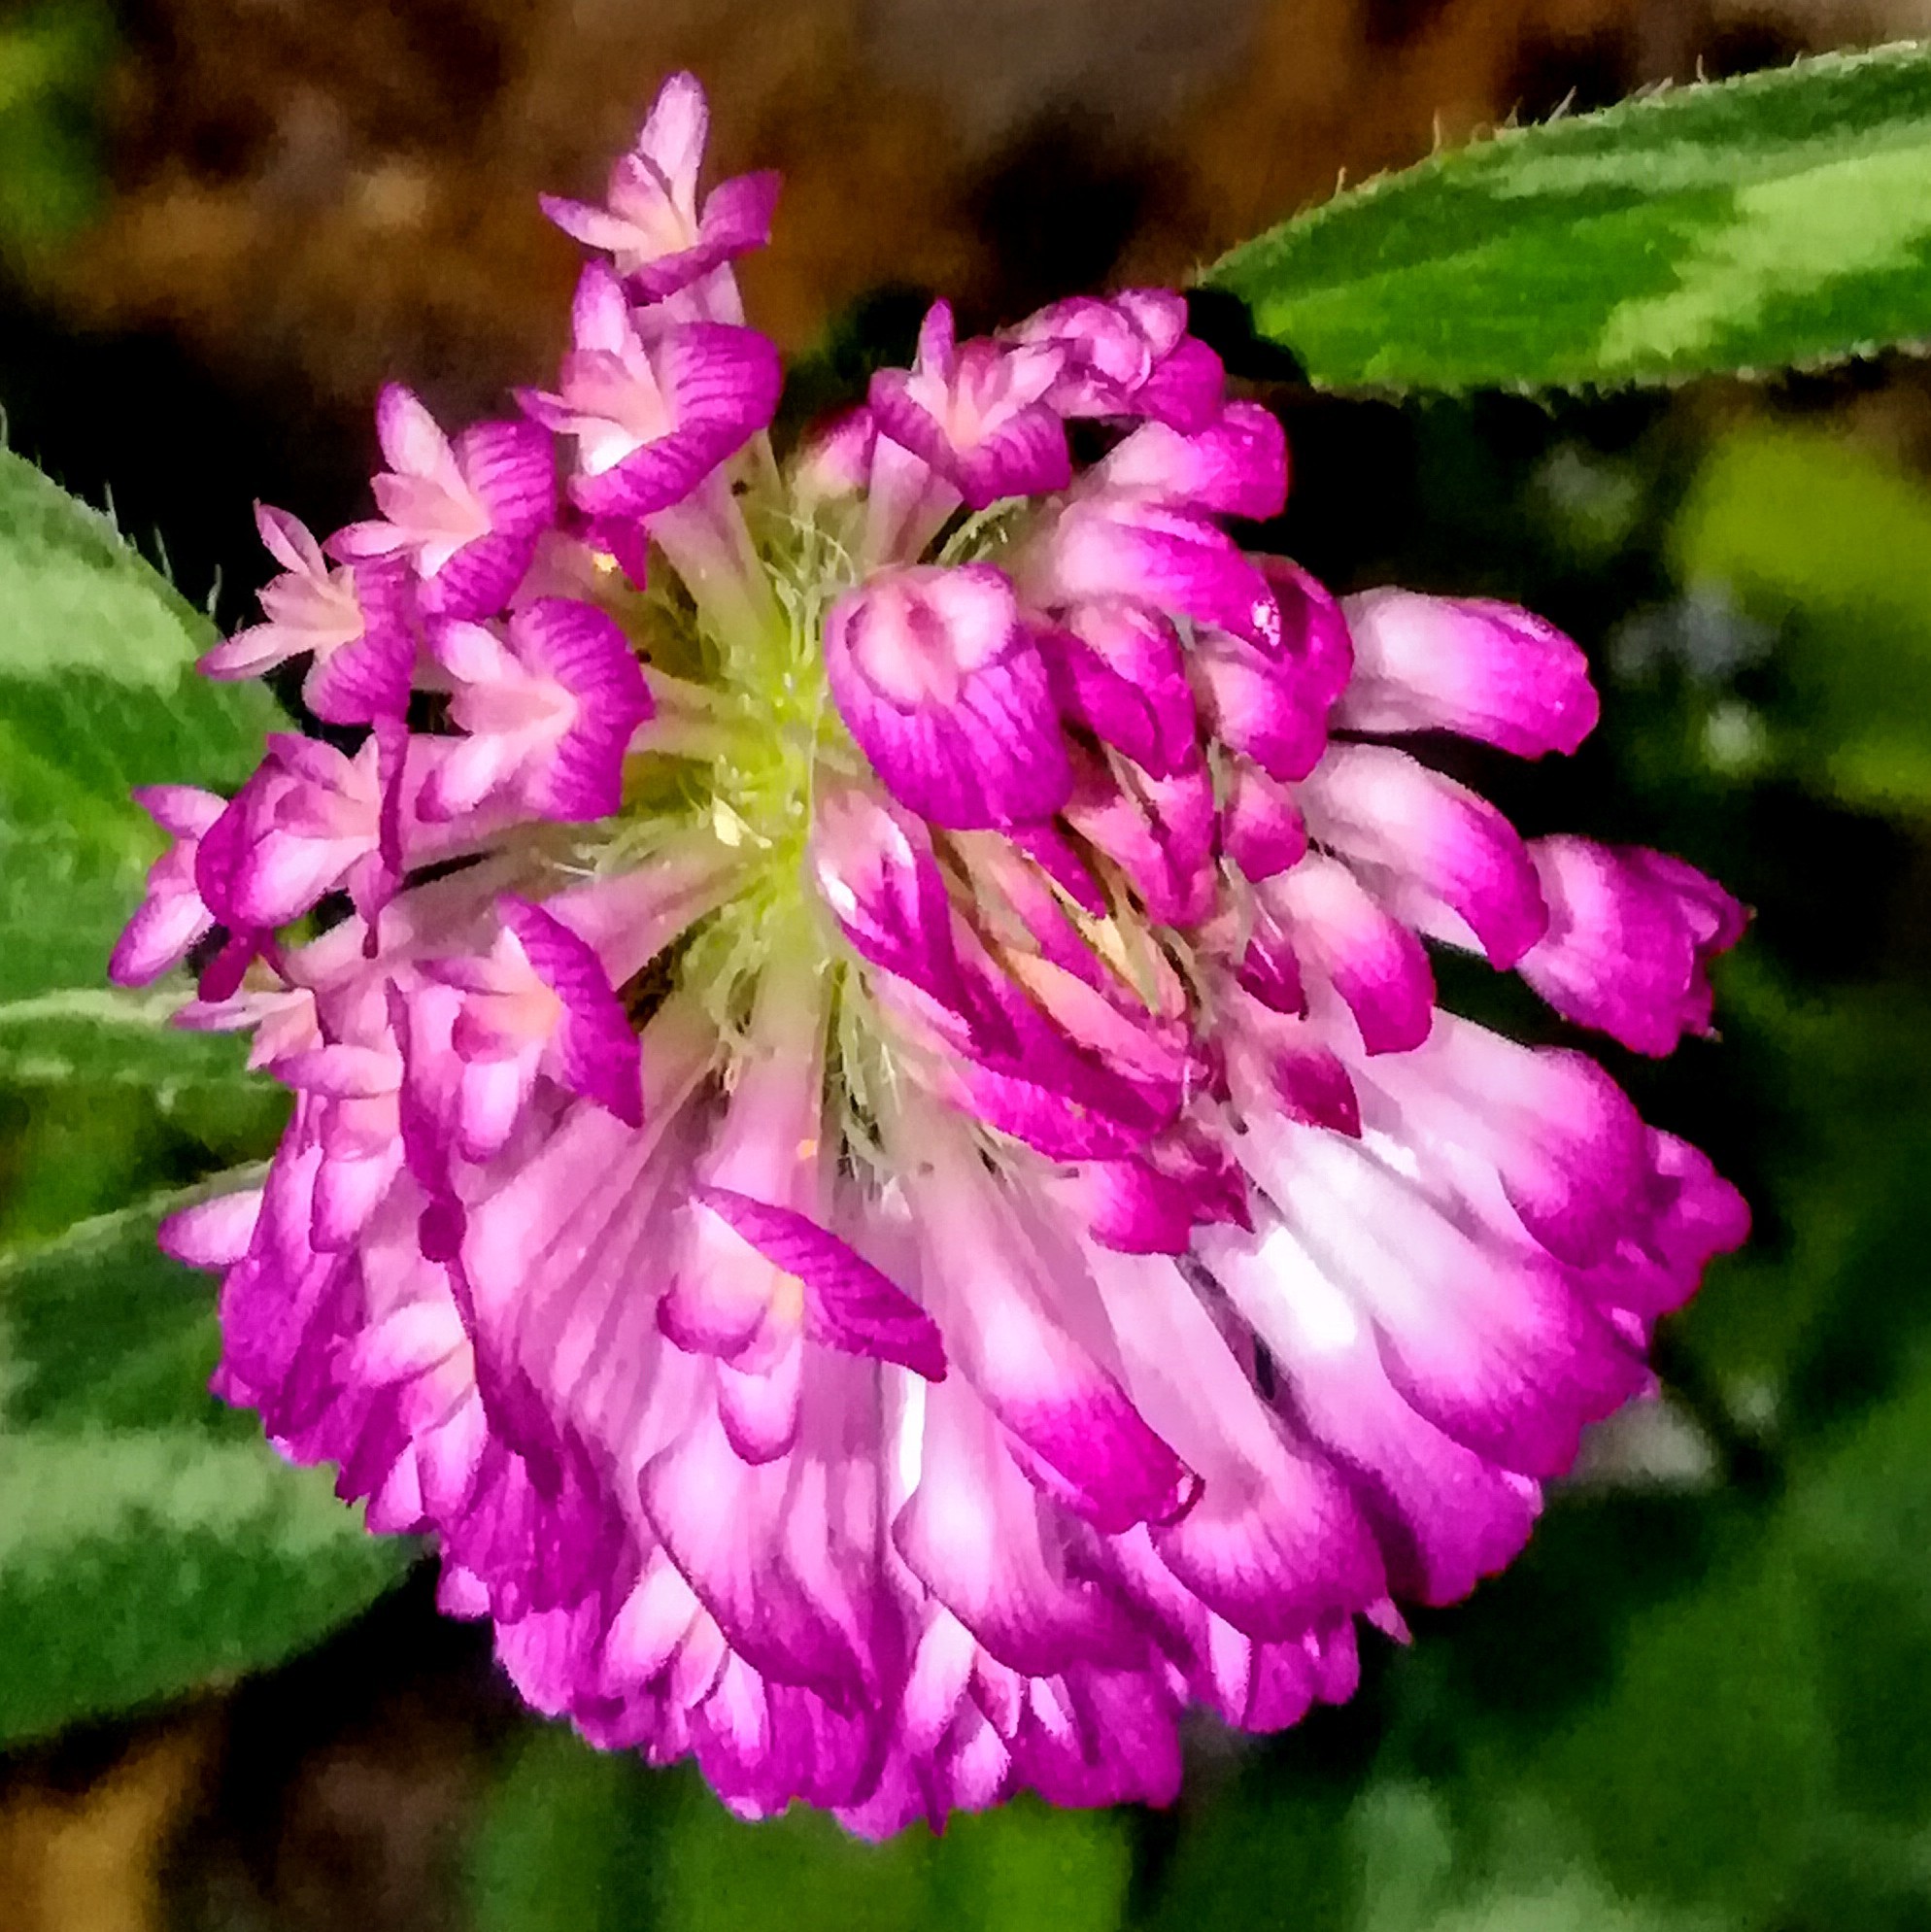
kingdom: Plantae
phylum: Tracheophyta
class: Magnoliopsida
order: Fabales
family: Fabaceae
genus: Trifolium
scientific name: Trifolium pratense
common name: Red clover
